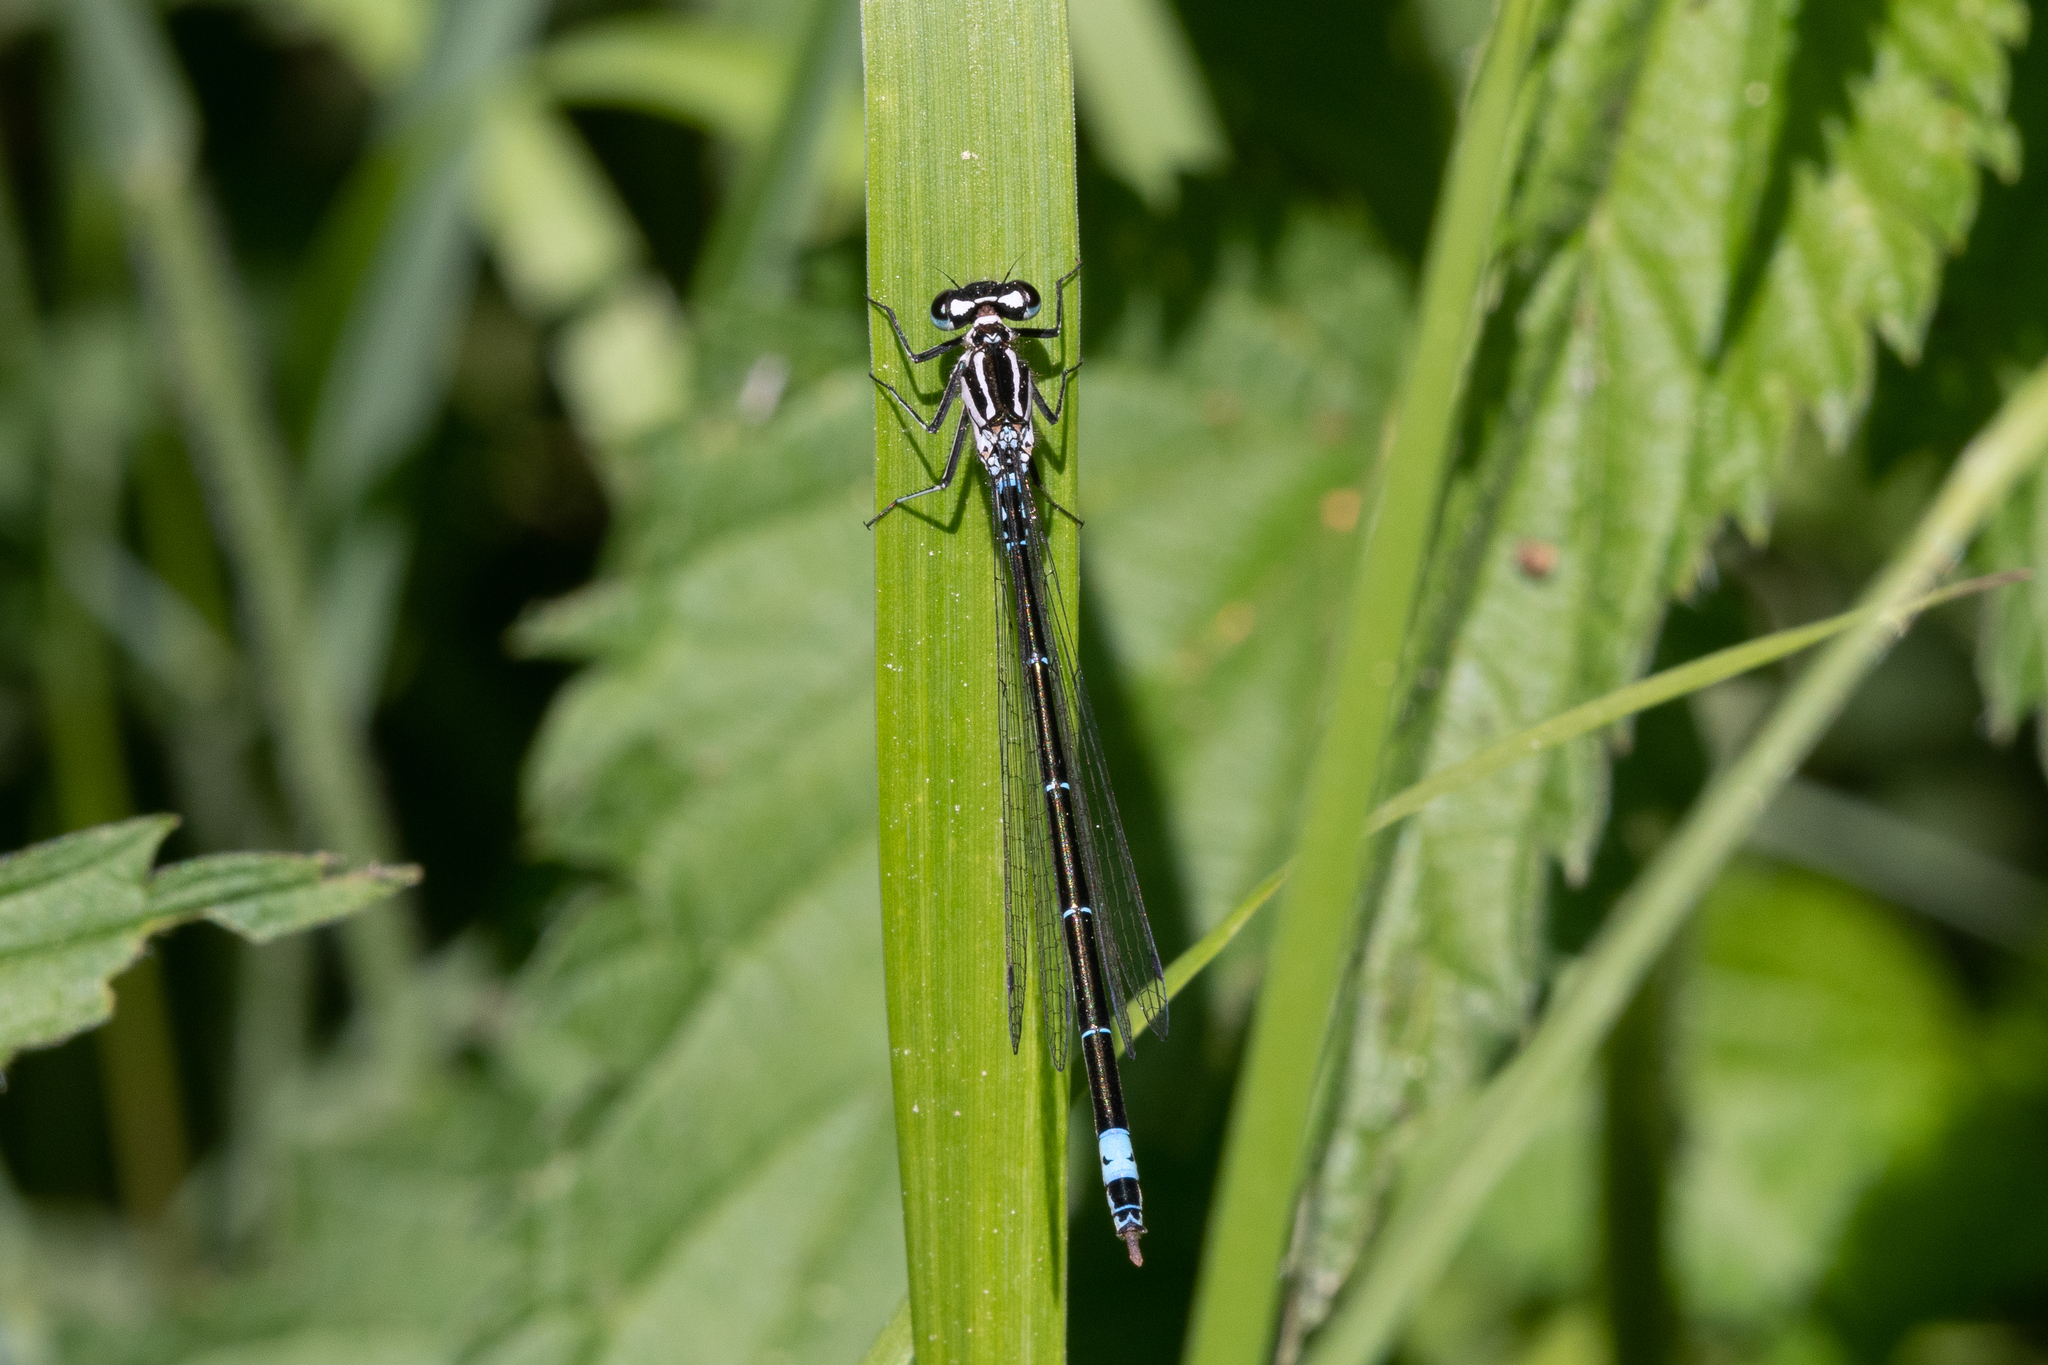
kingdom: Animalia
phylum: Arthropoda
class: Insecta
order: Odonata
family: Coenagrionidae
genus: Coenagrion
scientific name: Coenagrion pulchellum
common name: Variable bluet
